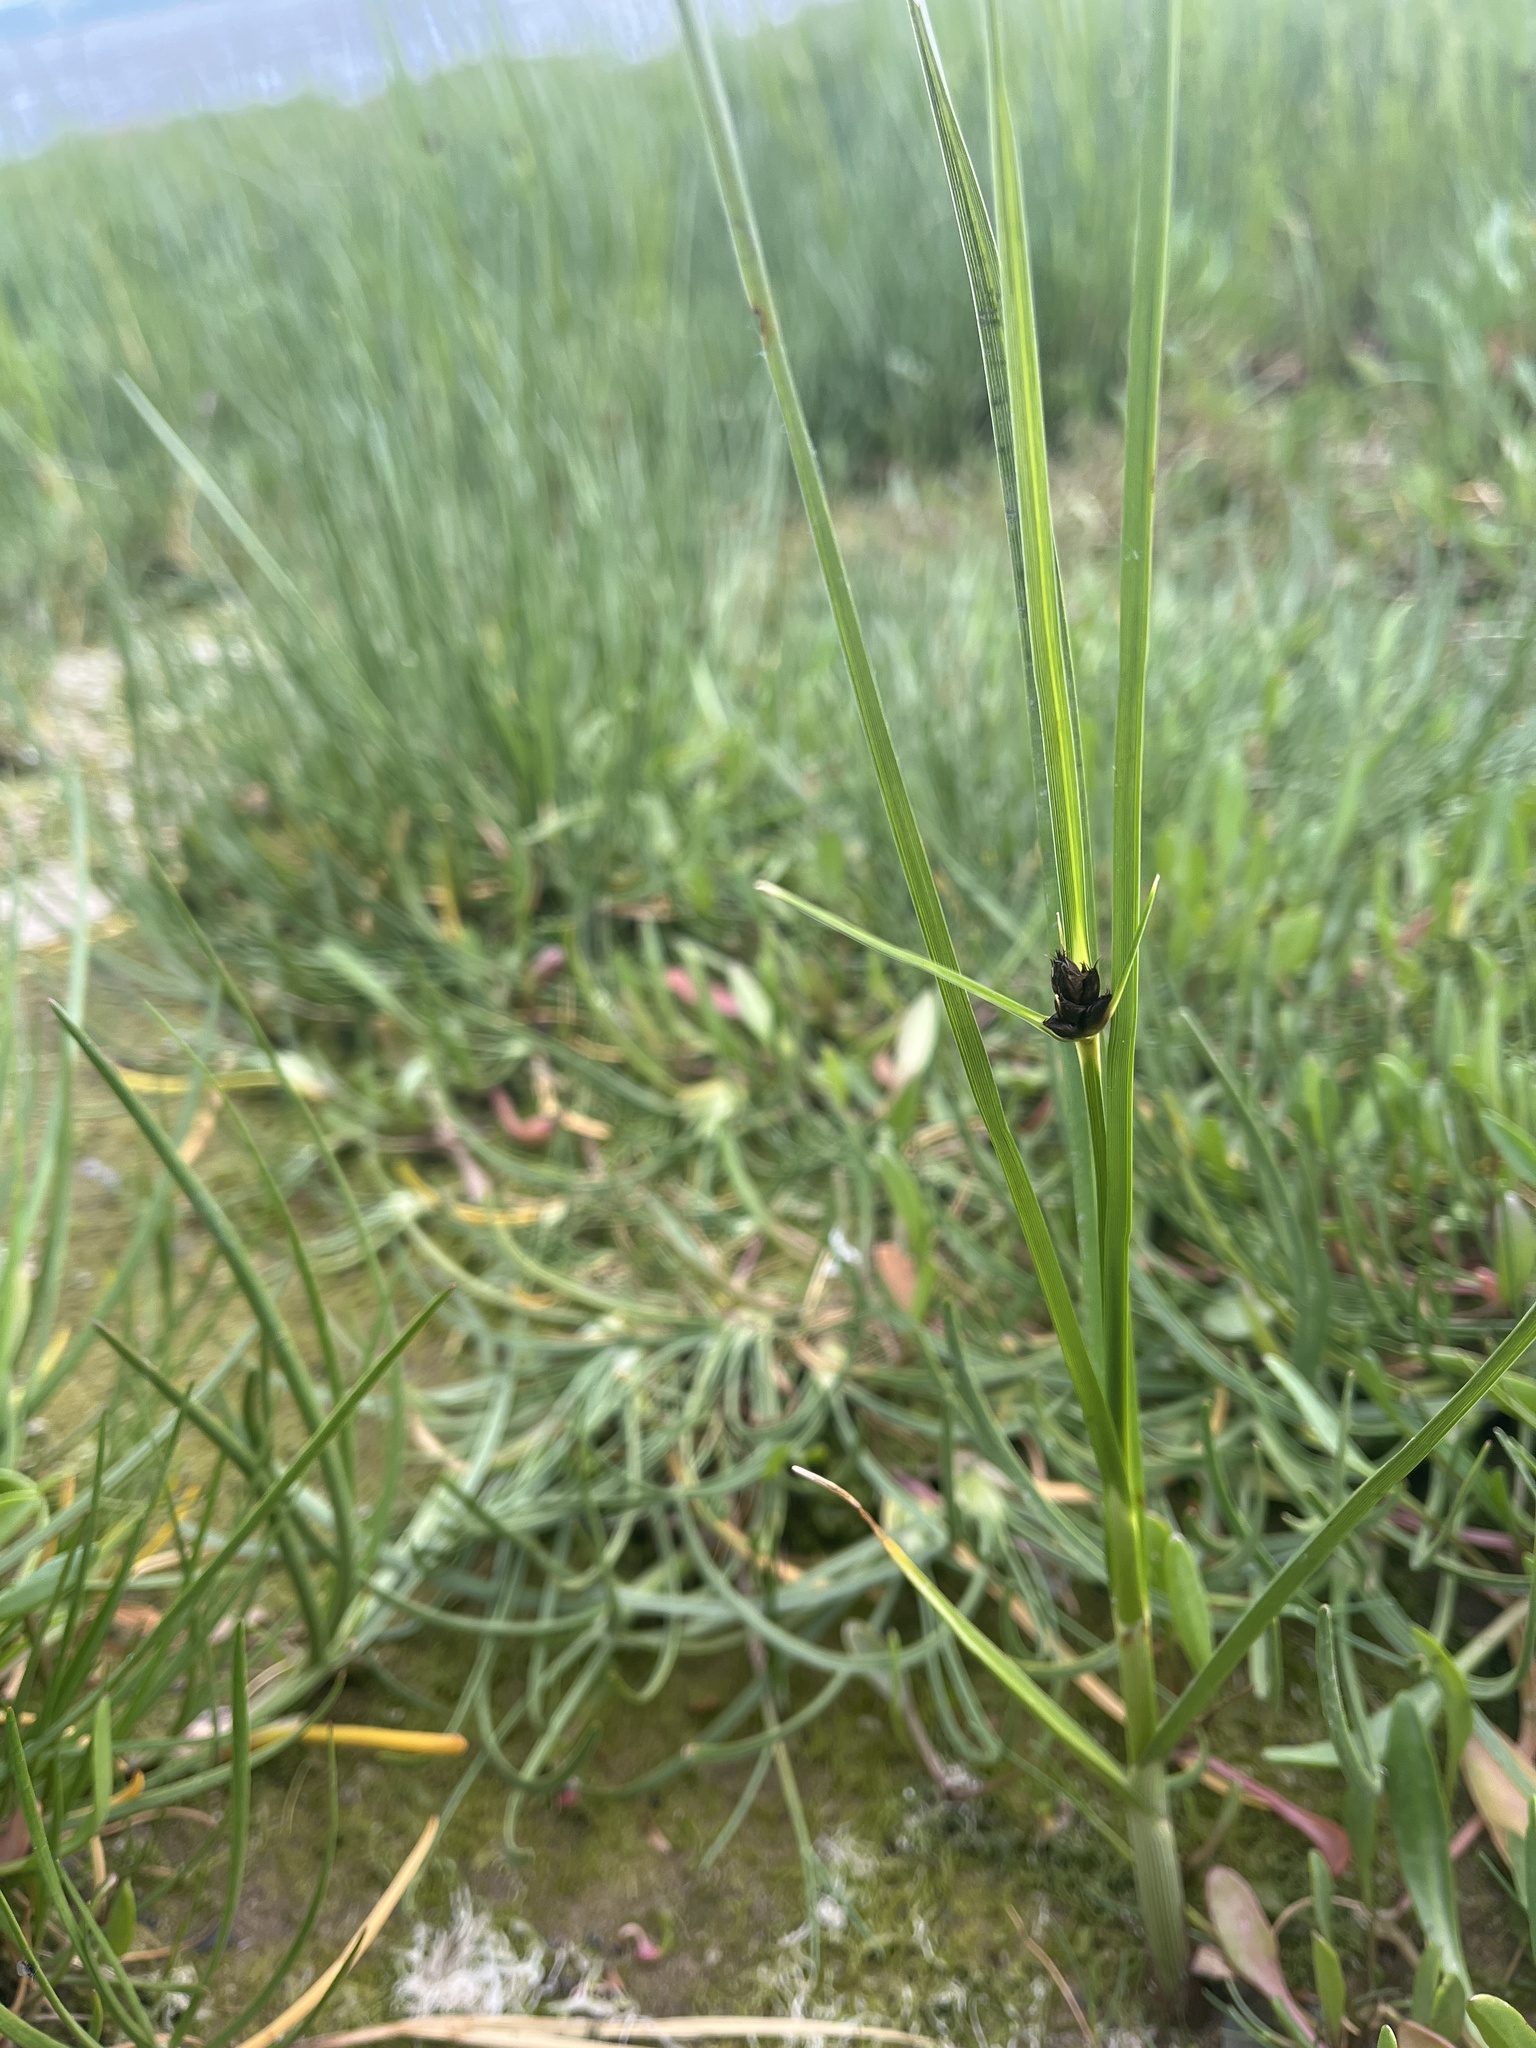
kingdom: Plantae
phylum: Tracheophyta
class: Liliopsida
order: Poales
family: Cyperaceae
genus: Bolboschoenus
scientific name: Bolboschoenus maritimus
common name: Sea club-rush
